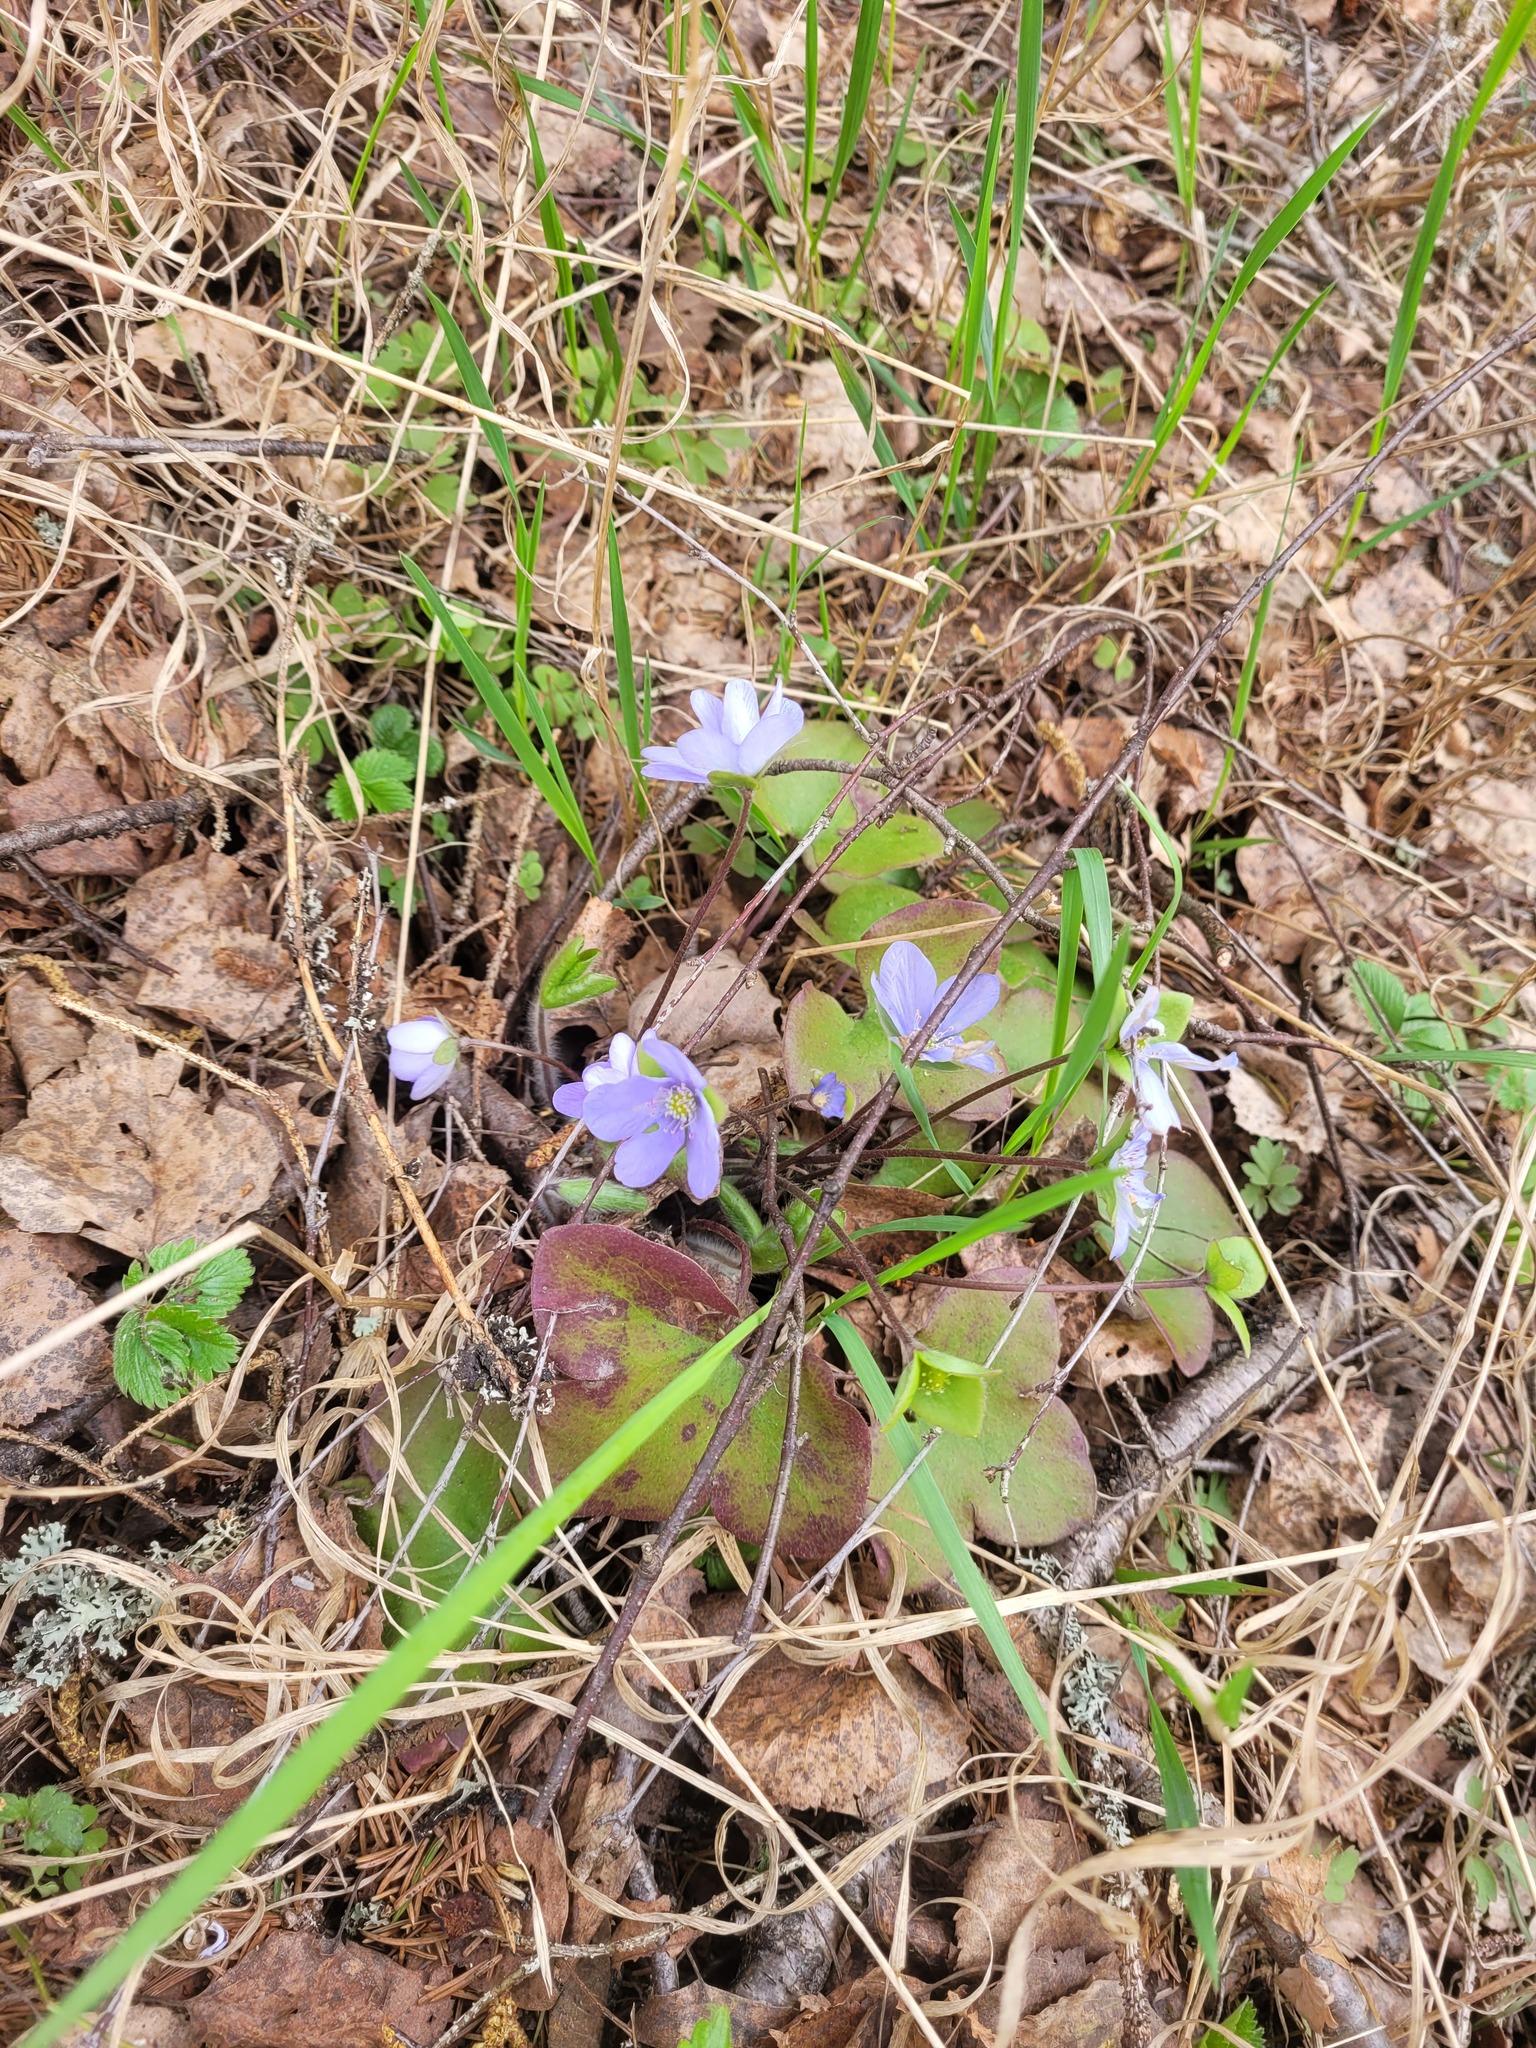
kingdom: Plantae
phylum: Tracheophyta
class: Magnoliopsida
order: Ranunculales
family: Ranunculaceae
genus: Hepatica
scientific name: Hepatica nobilis
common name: Liverleaf
